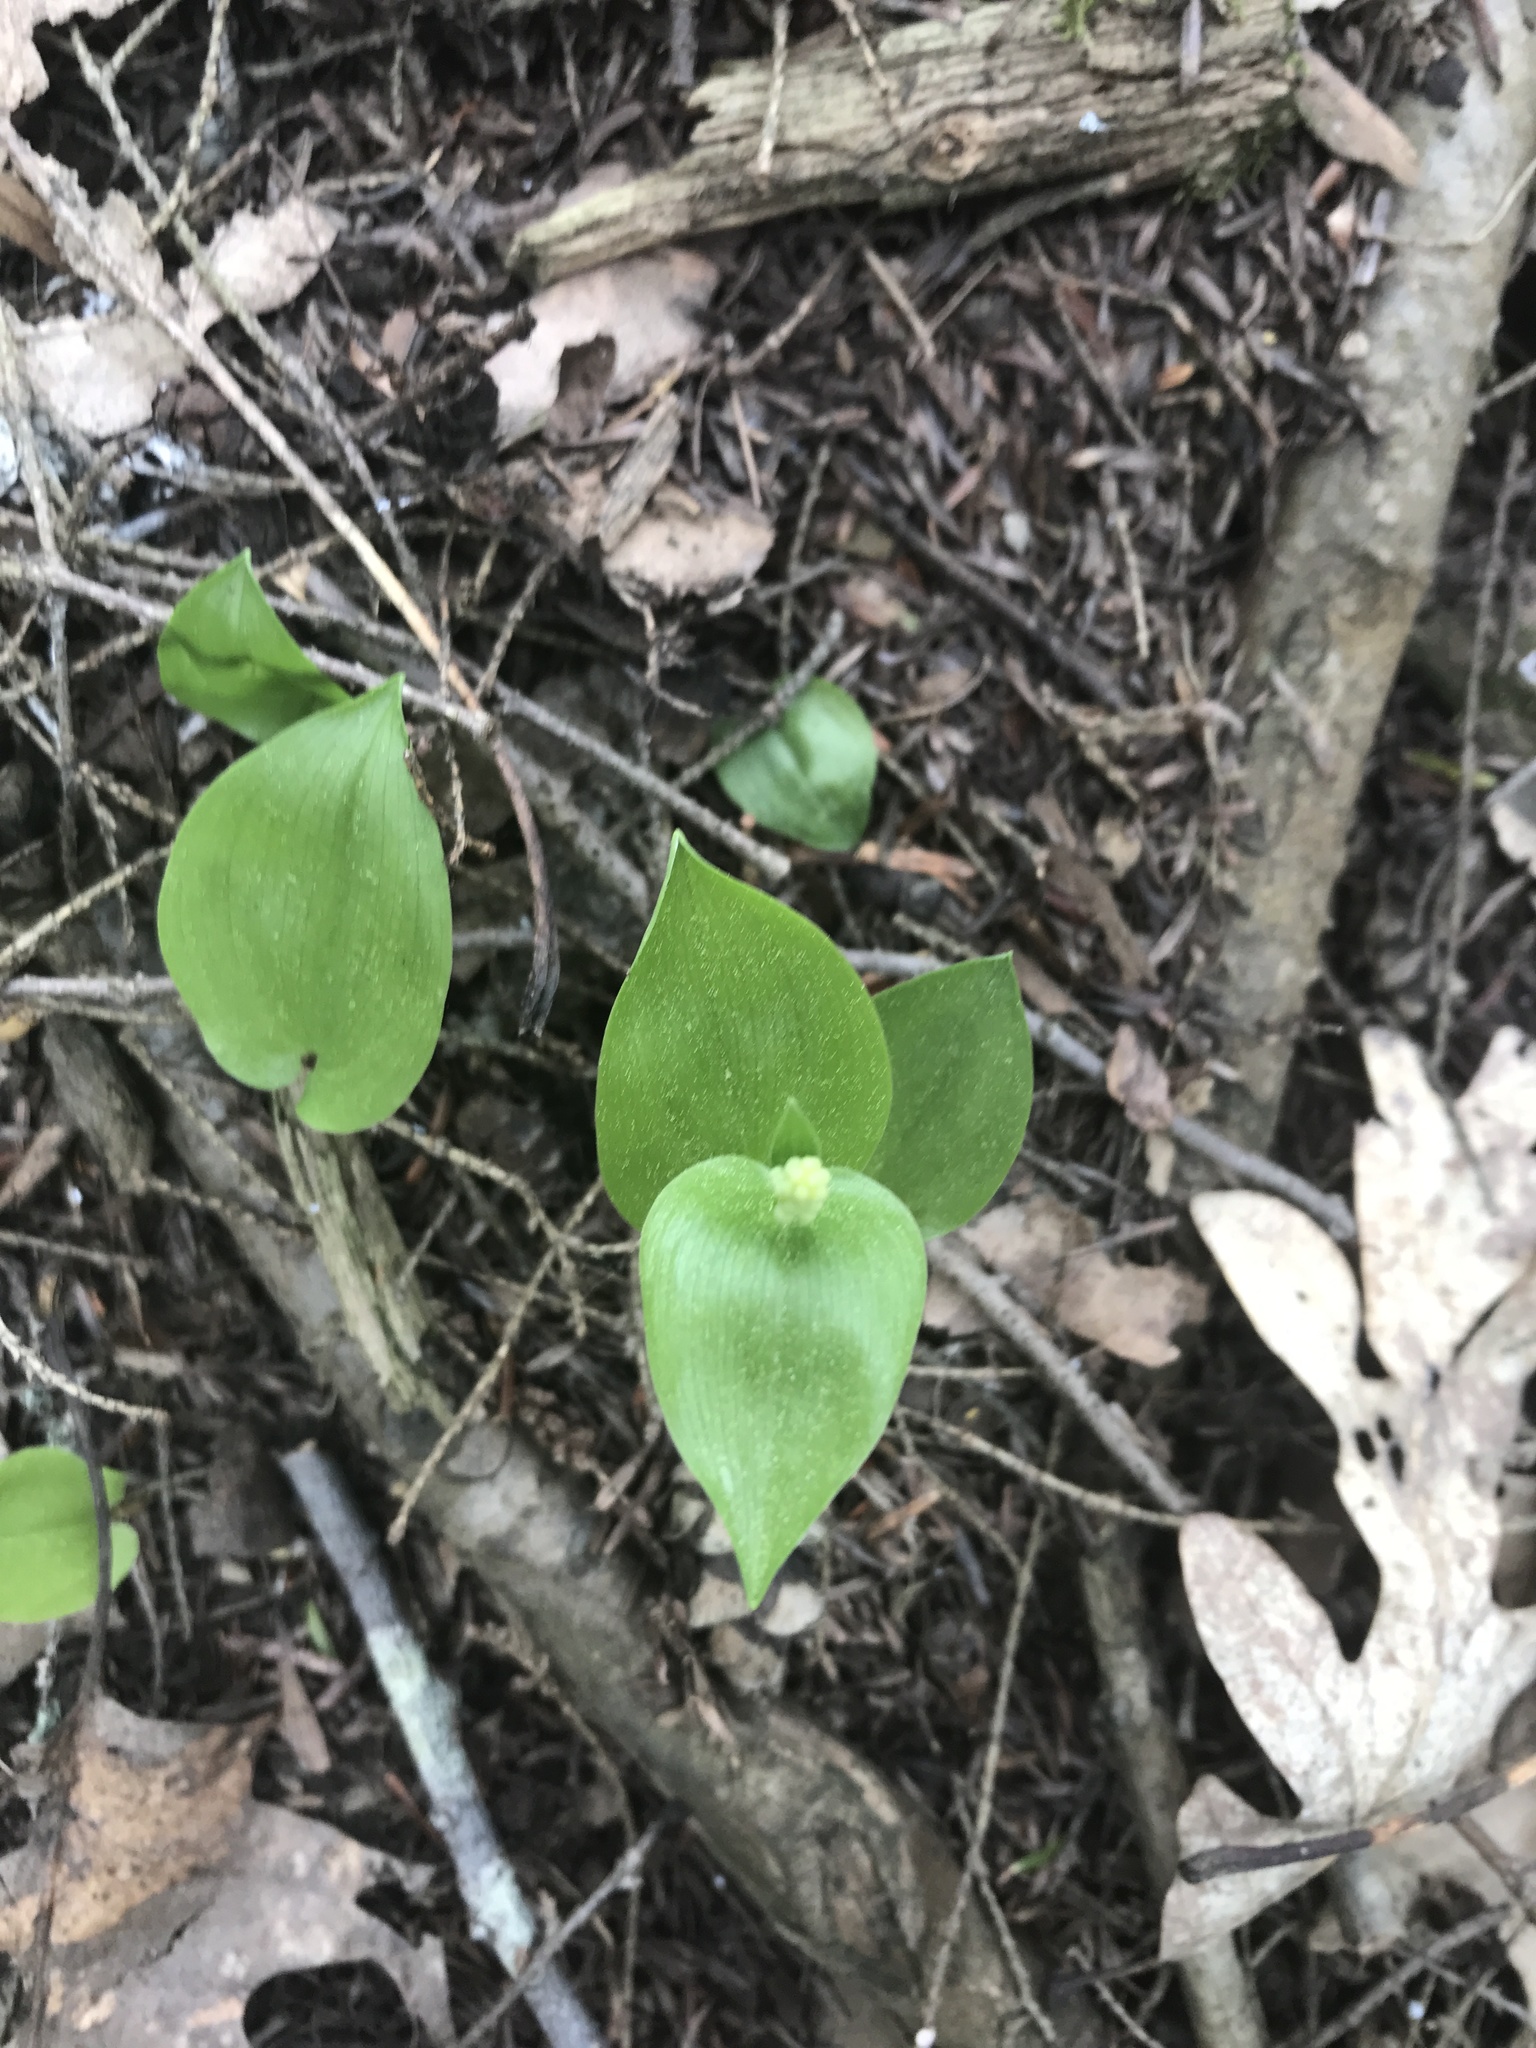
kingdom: Plantae
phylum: Tracheophyta
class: Liliopsida
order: Asparagales
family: Asparagaceae
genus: Maianthemum
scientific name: Maianthemum canadense
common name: False lily-of-the-valley
